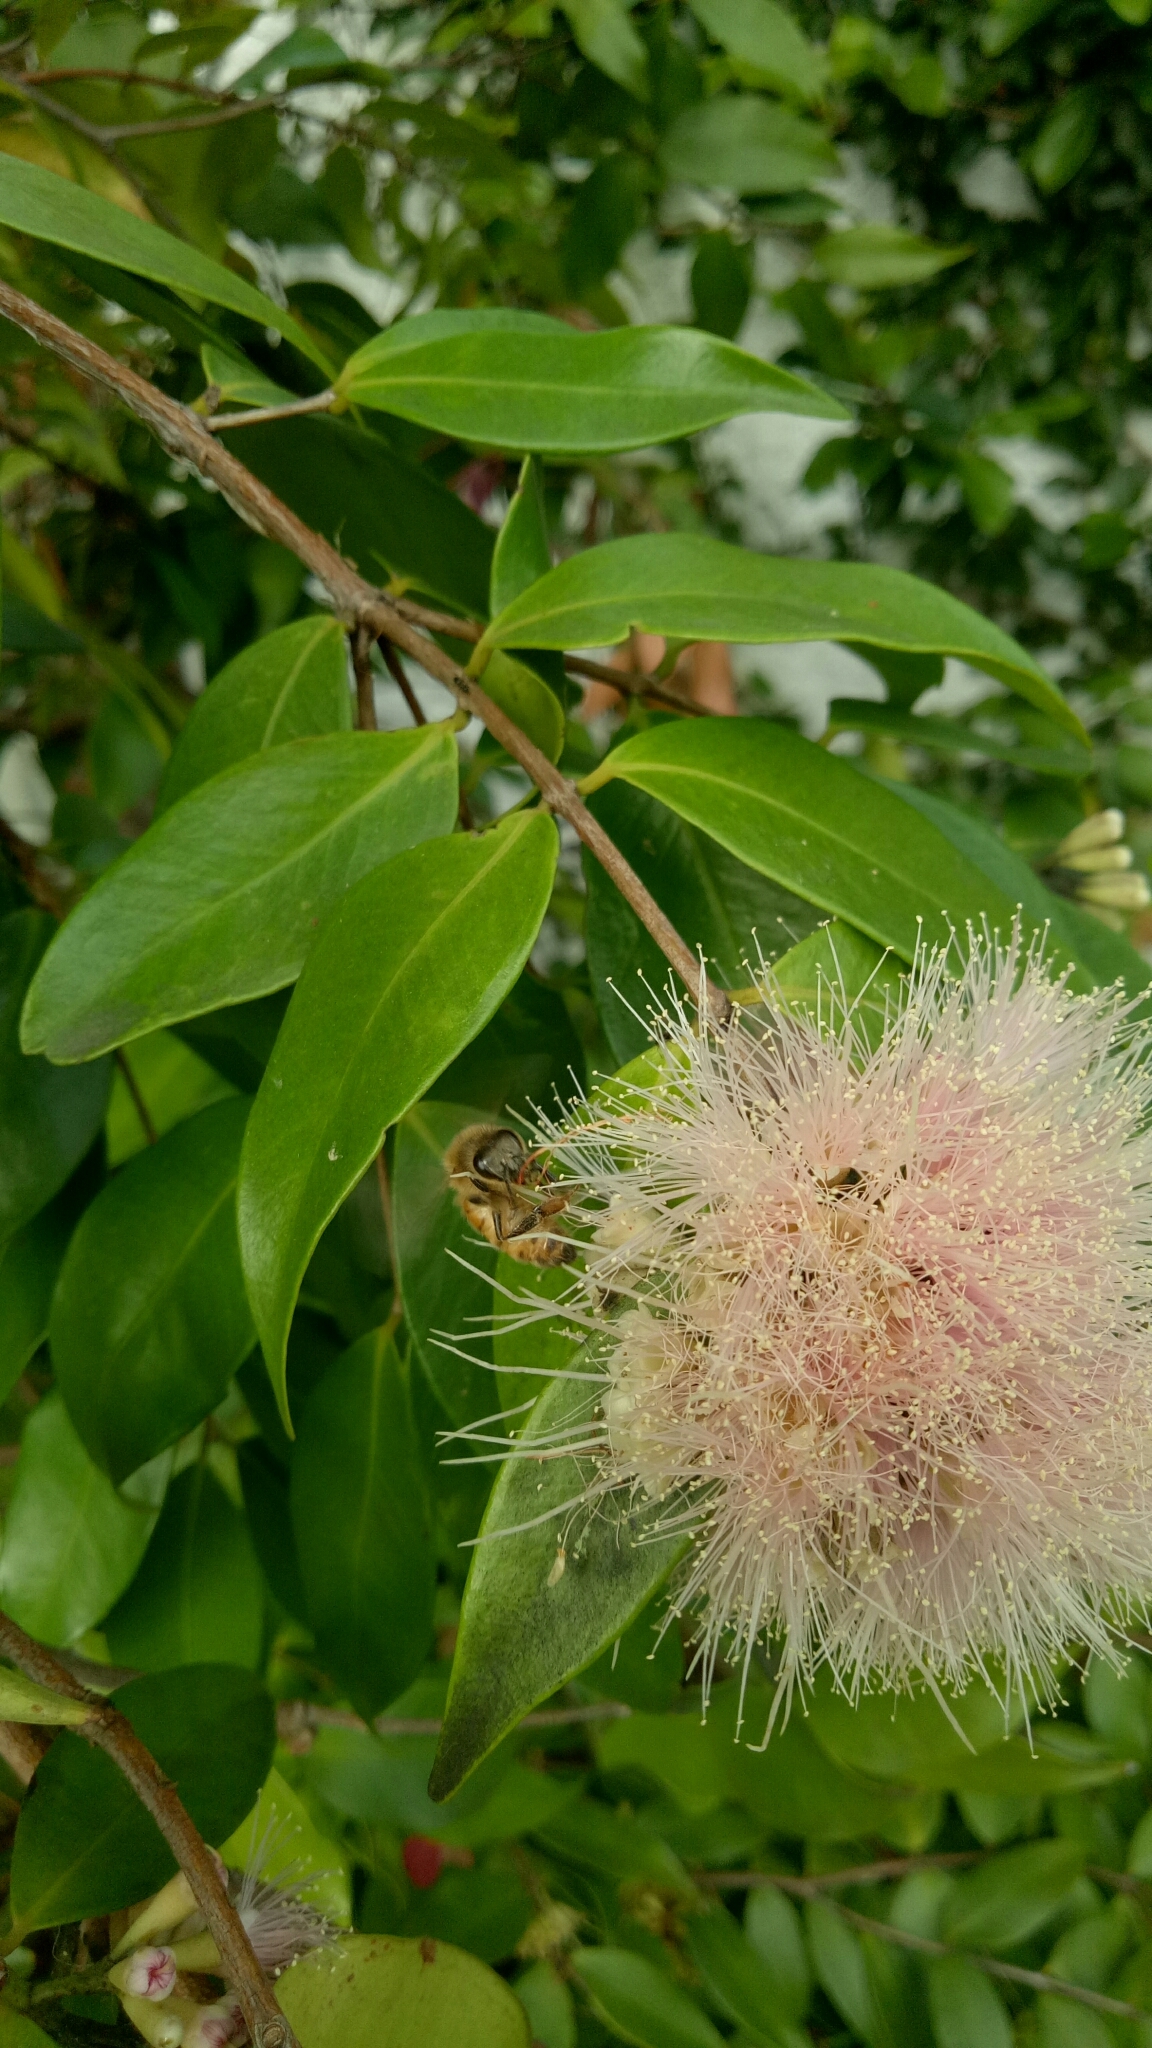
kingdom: Animalia
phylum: Arthropoda
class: Insecta
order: Hymenoptera
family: Apidae
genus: Apis
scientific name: Apis mellifera
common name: Honey bee
